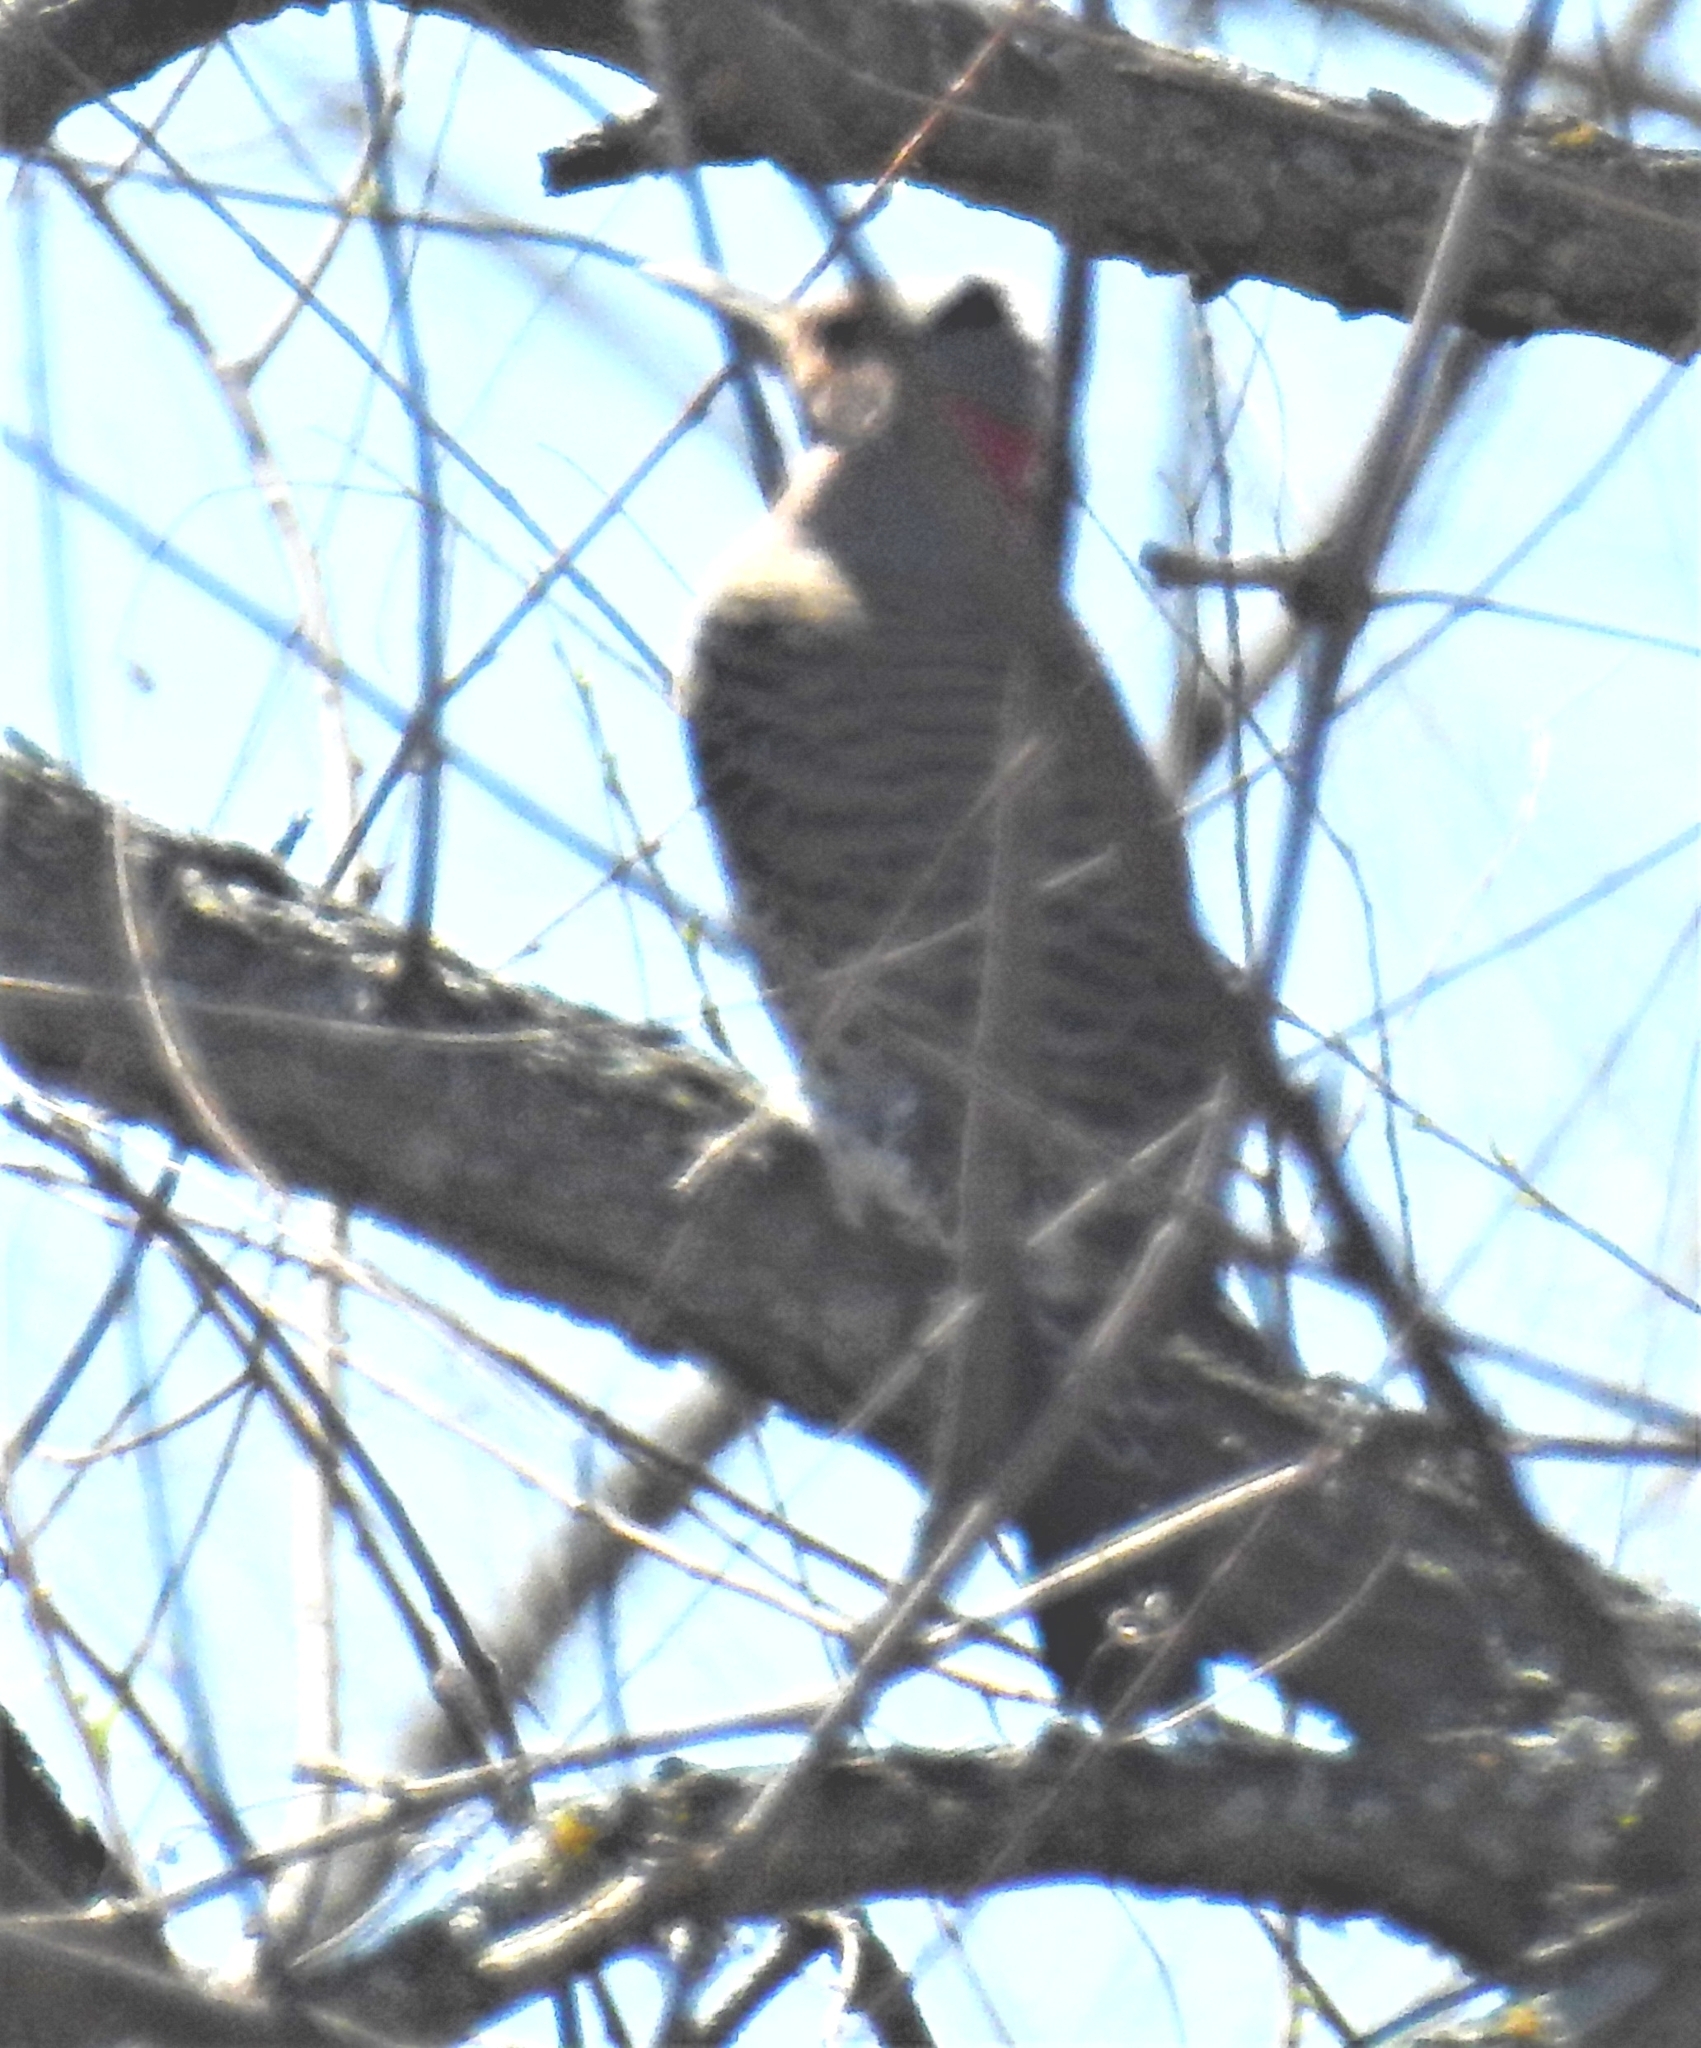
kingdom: Animalia
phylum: Chordata
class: Aves
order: Piciformes
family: Picidae
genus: Colaptes
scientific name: Colaptes auratus
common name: Northern flicker
